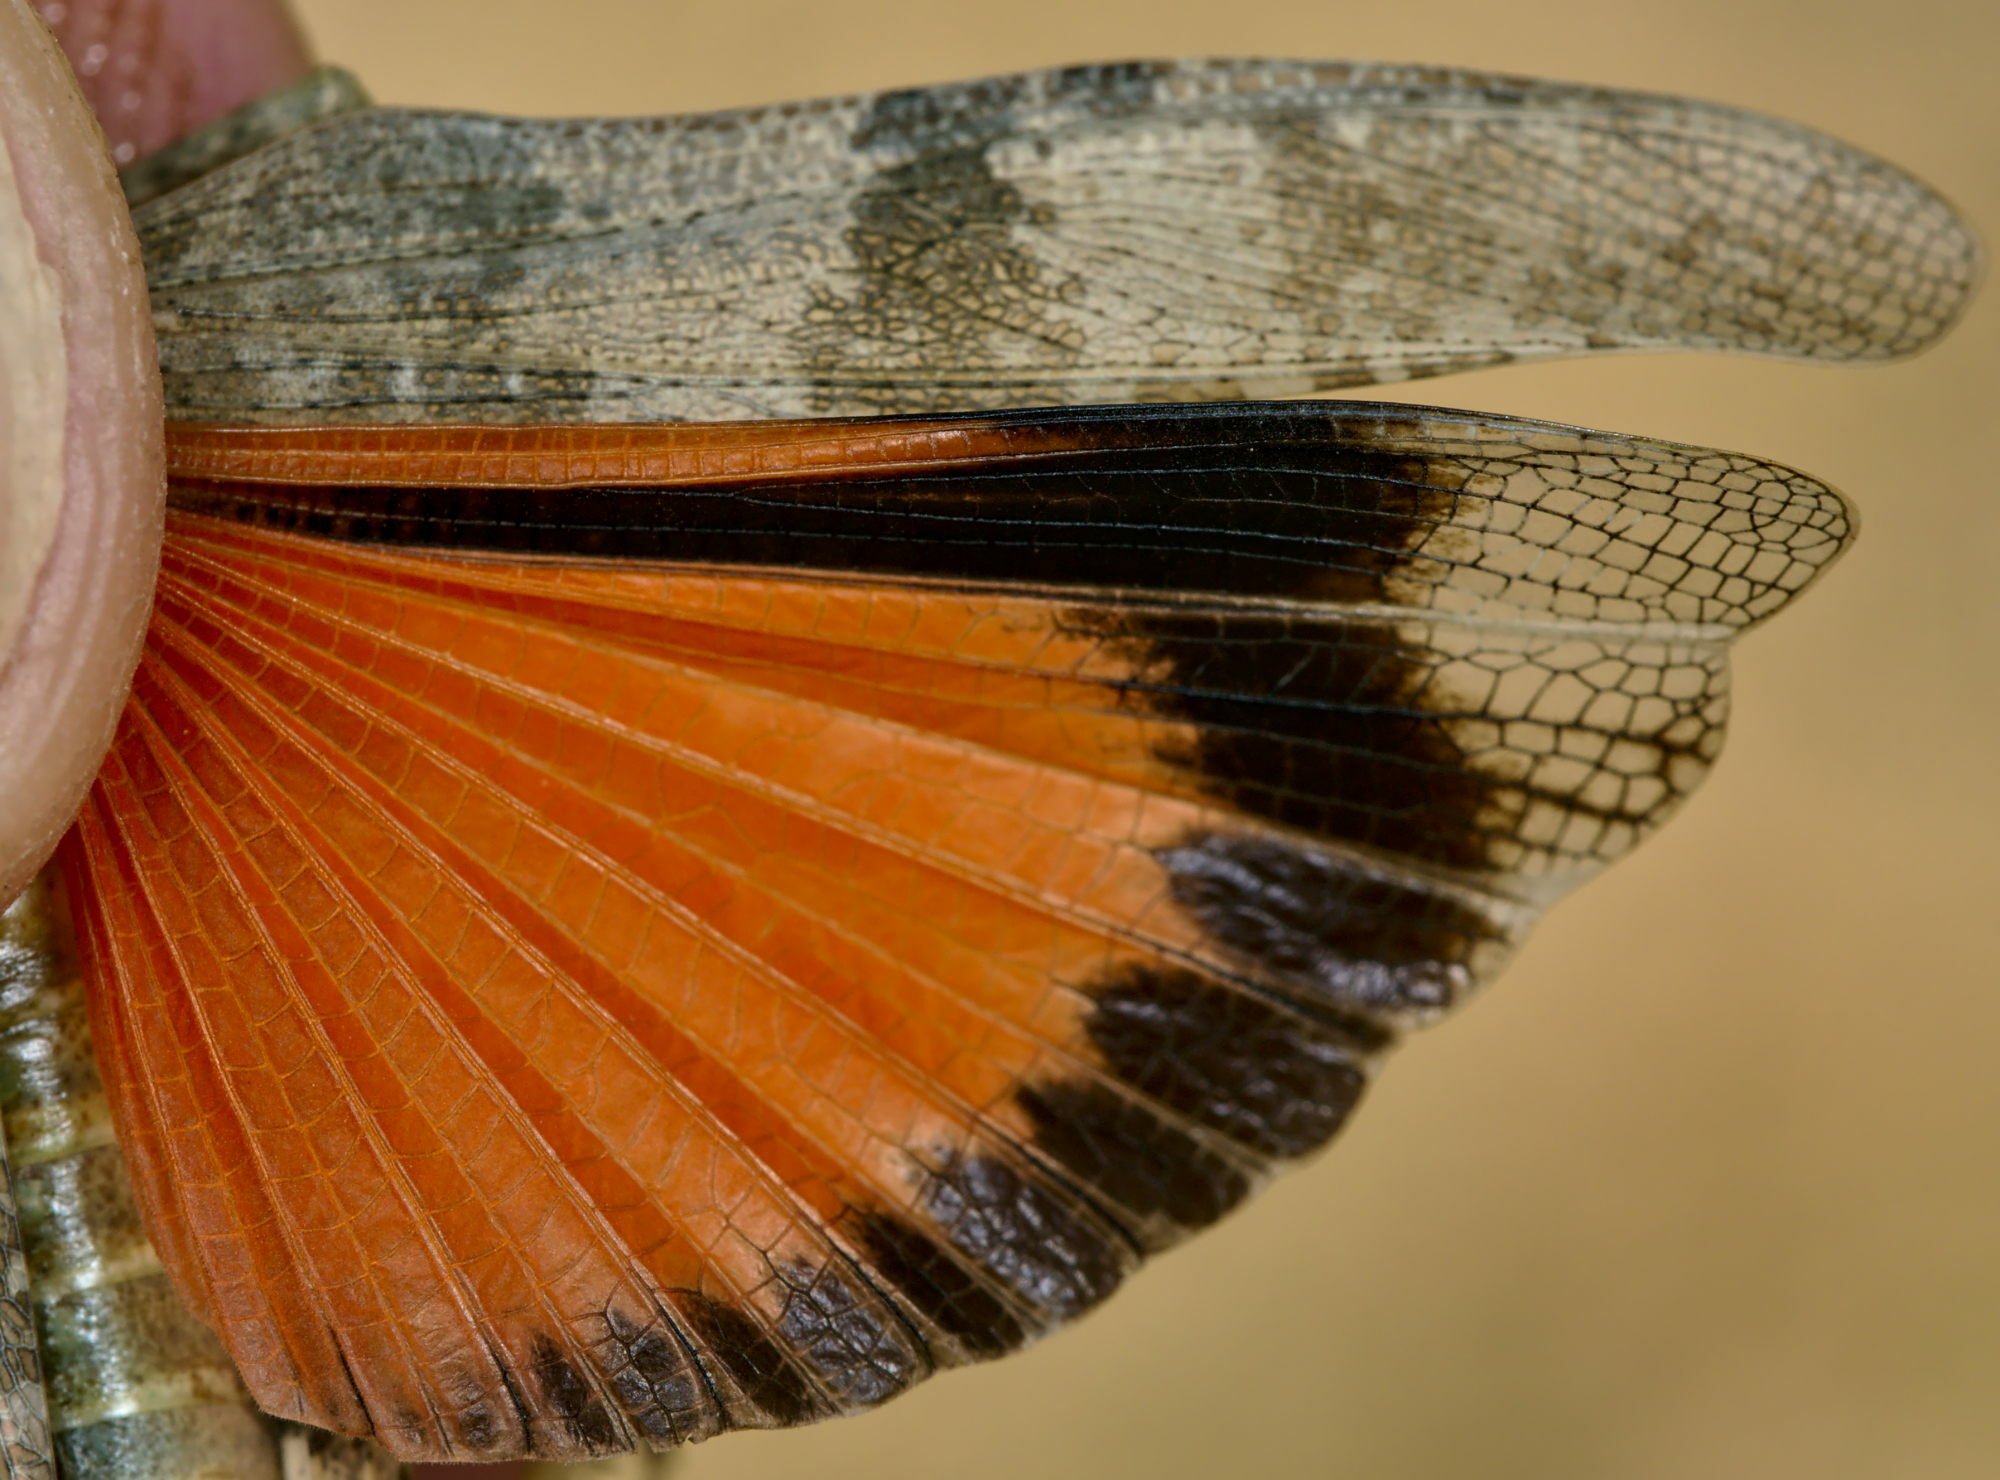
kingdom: Animalia
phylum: Arthropoda
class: Insecta
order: Orthoptera
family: Acrididae
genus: Oedipoda
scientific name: Oedipoda germanica
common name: Red band-winged grasshopper
